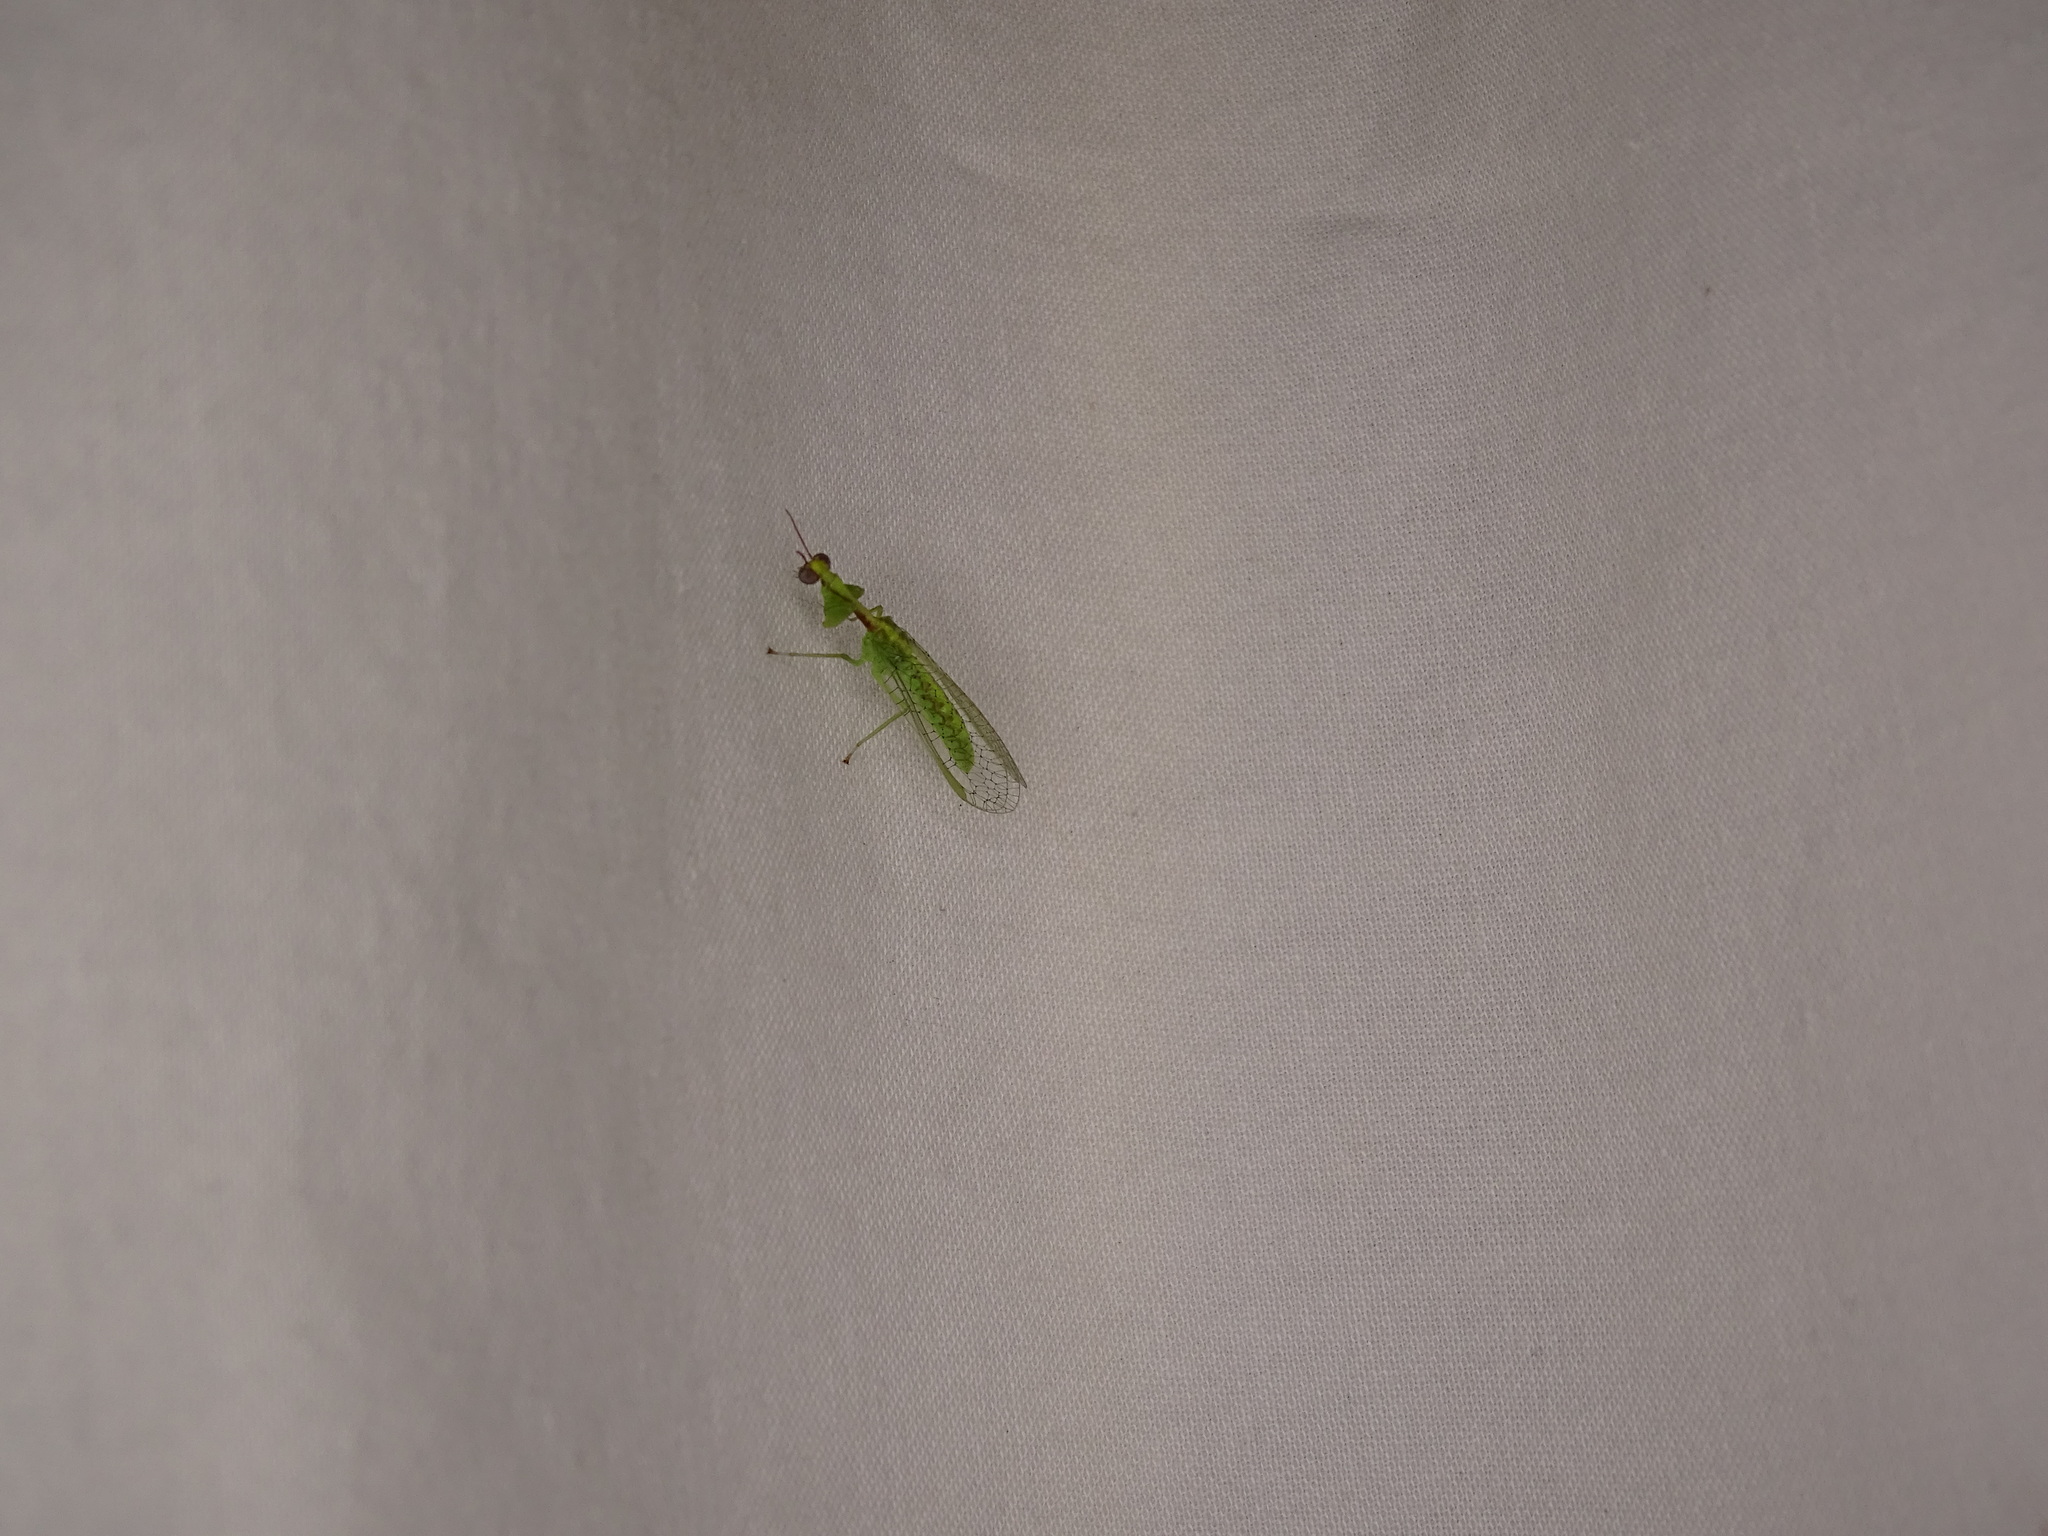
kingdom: Animalia
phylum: Arthropoda
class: Insecta
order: Neuroptera
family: Mantispidae
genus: Zeugomantispa
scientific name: Zeugomantispa minuta
